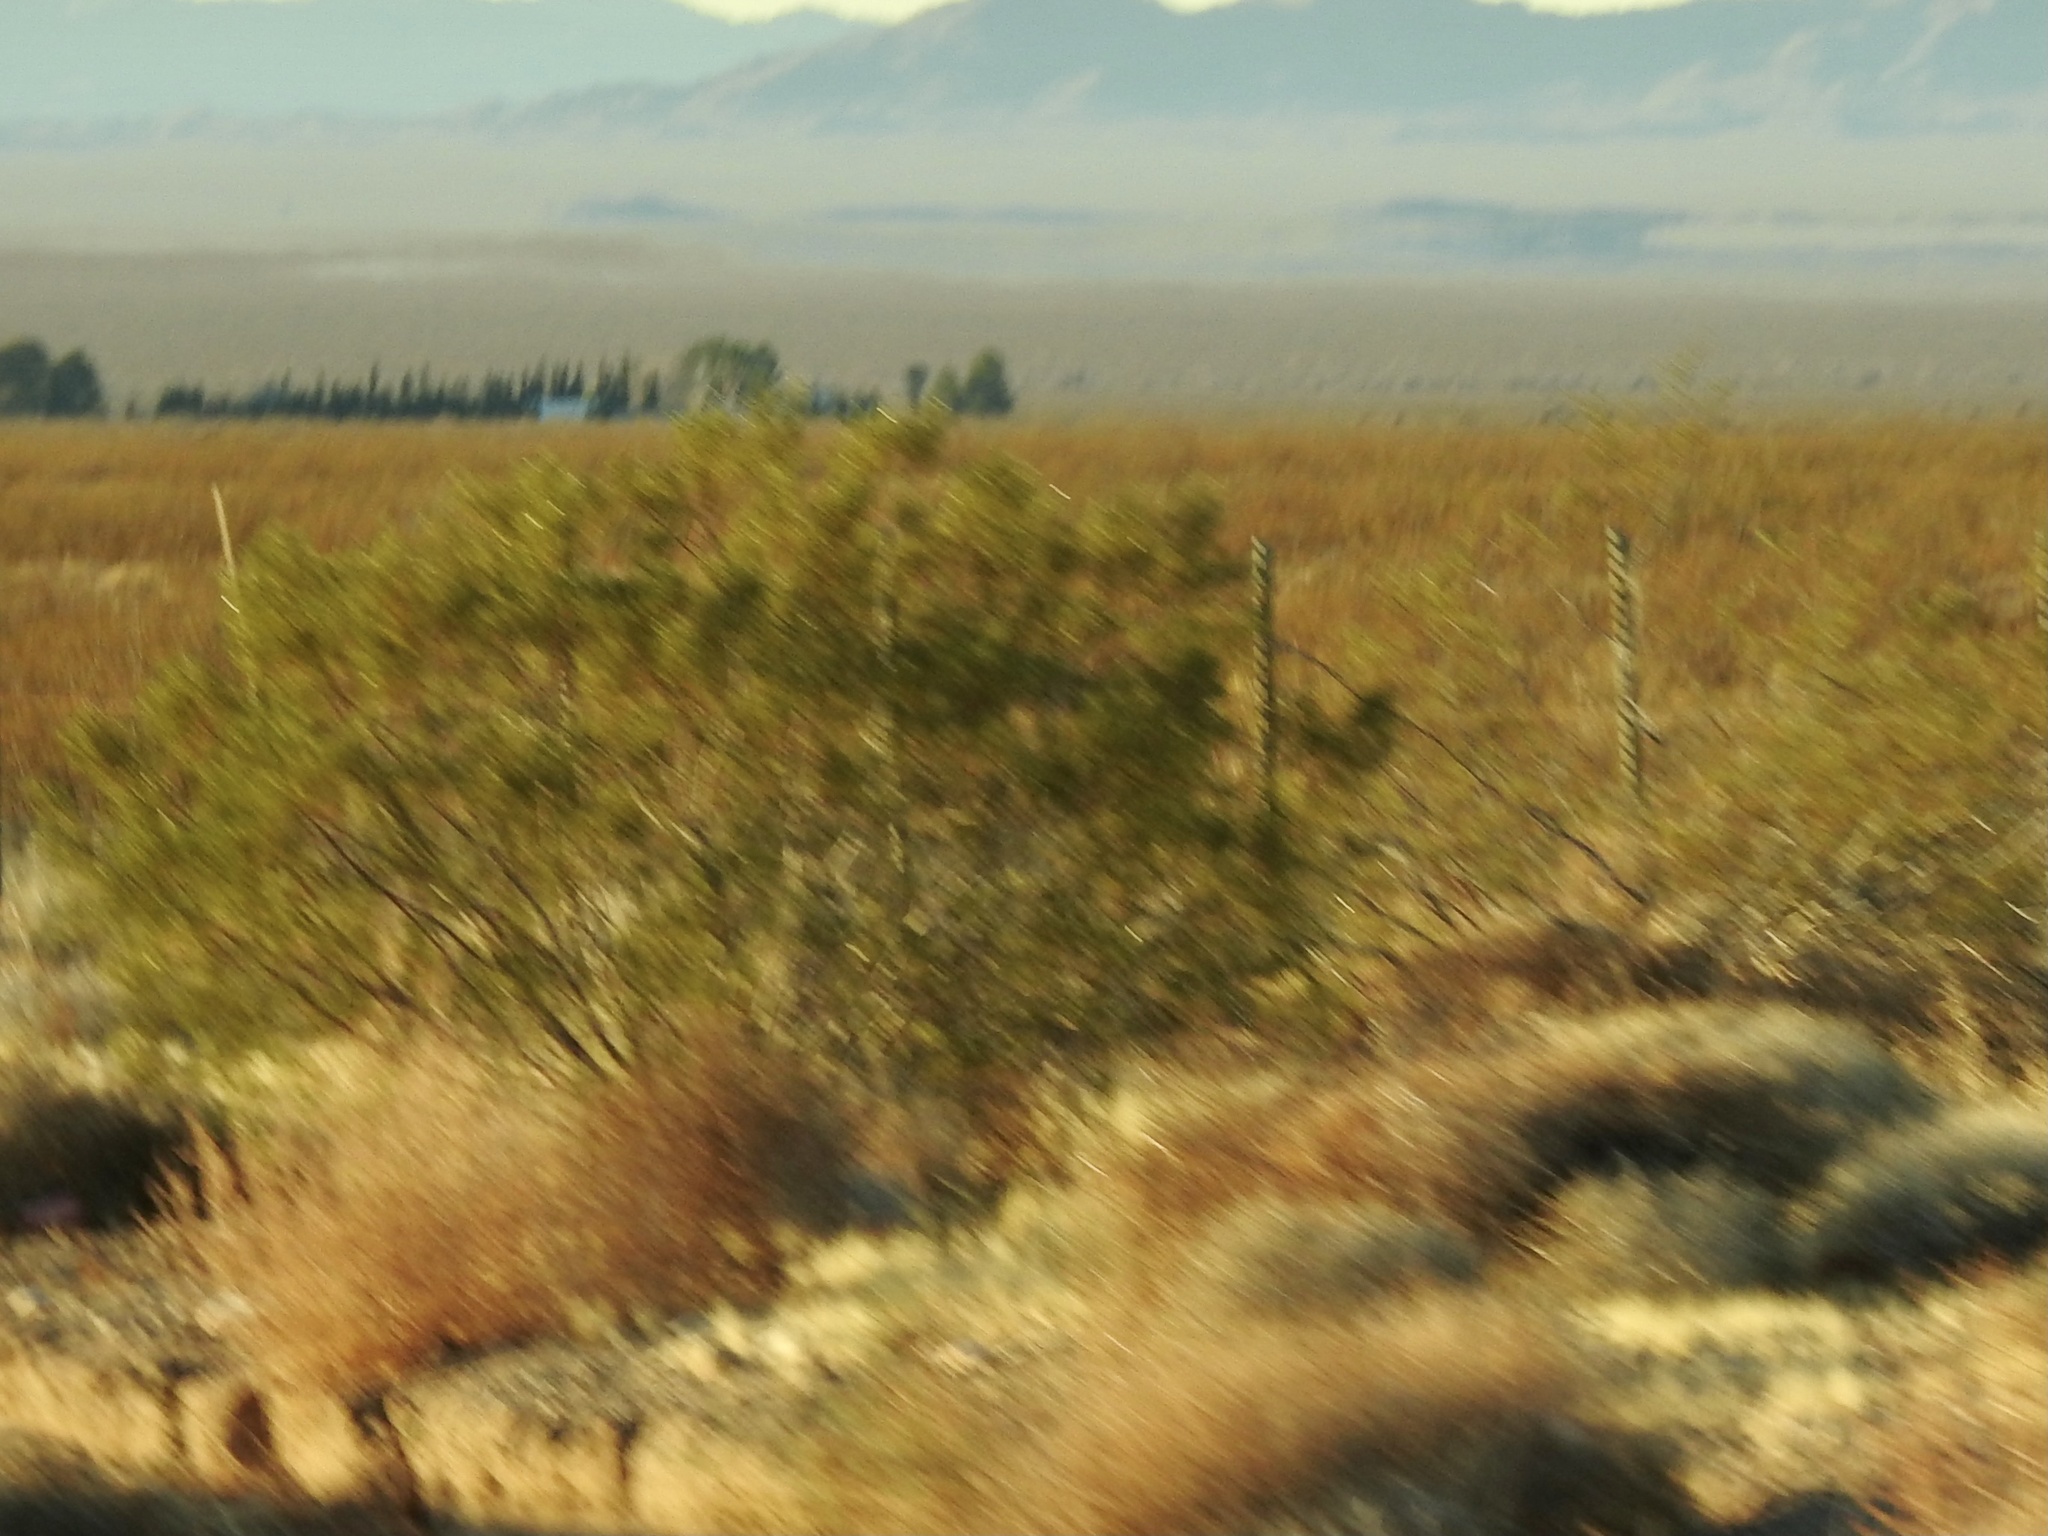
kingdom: Plantae
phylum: Tracheophyta
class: Magnoliopsida
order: Zygophyllales
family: Zygophyllaceae
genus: Larrea
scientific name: Larrea tridentata
